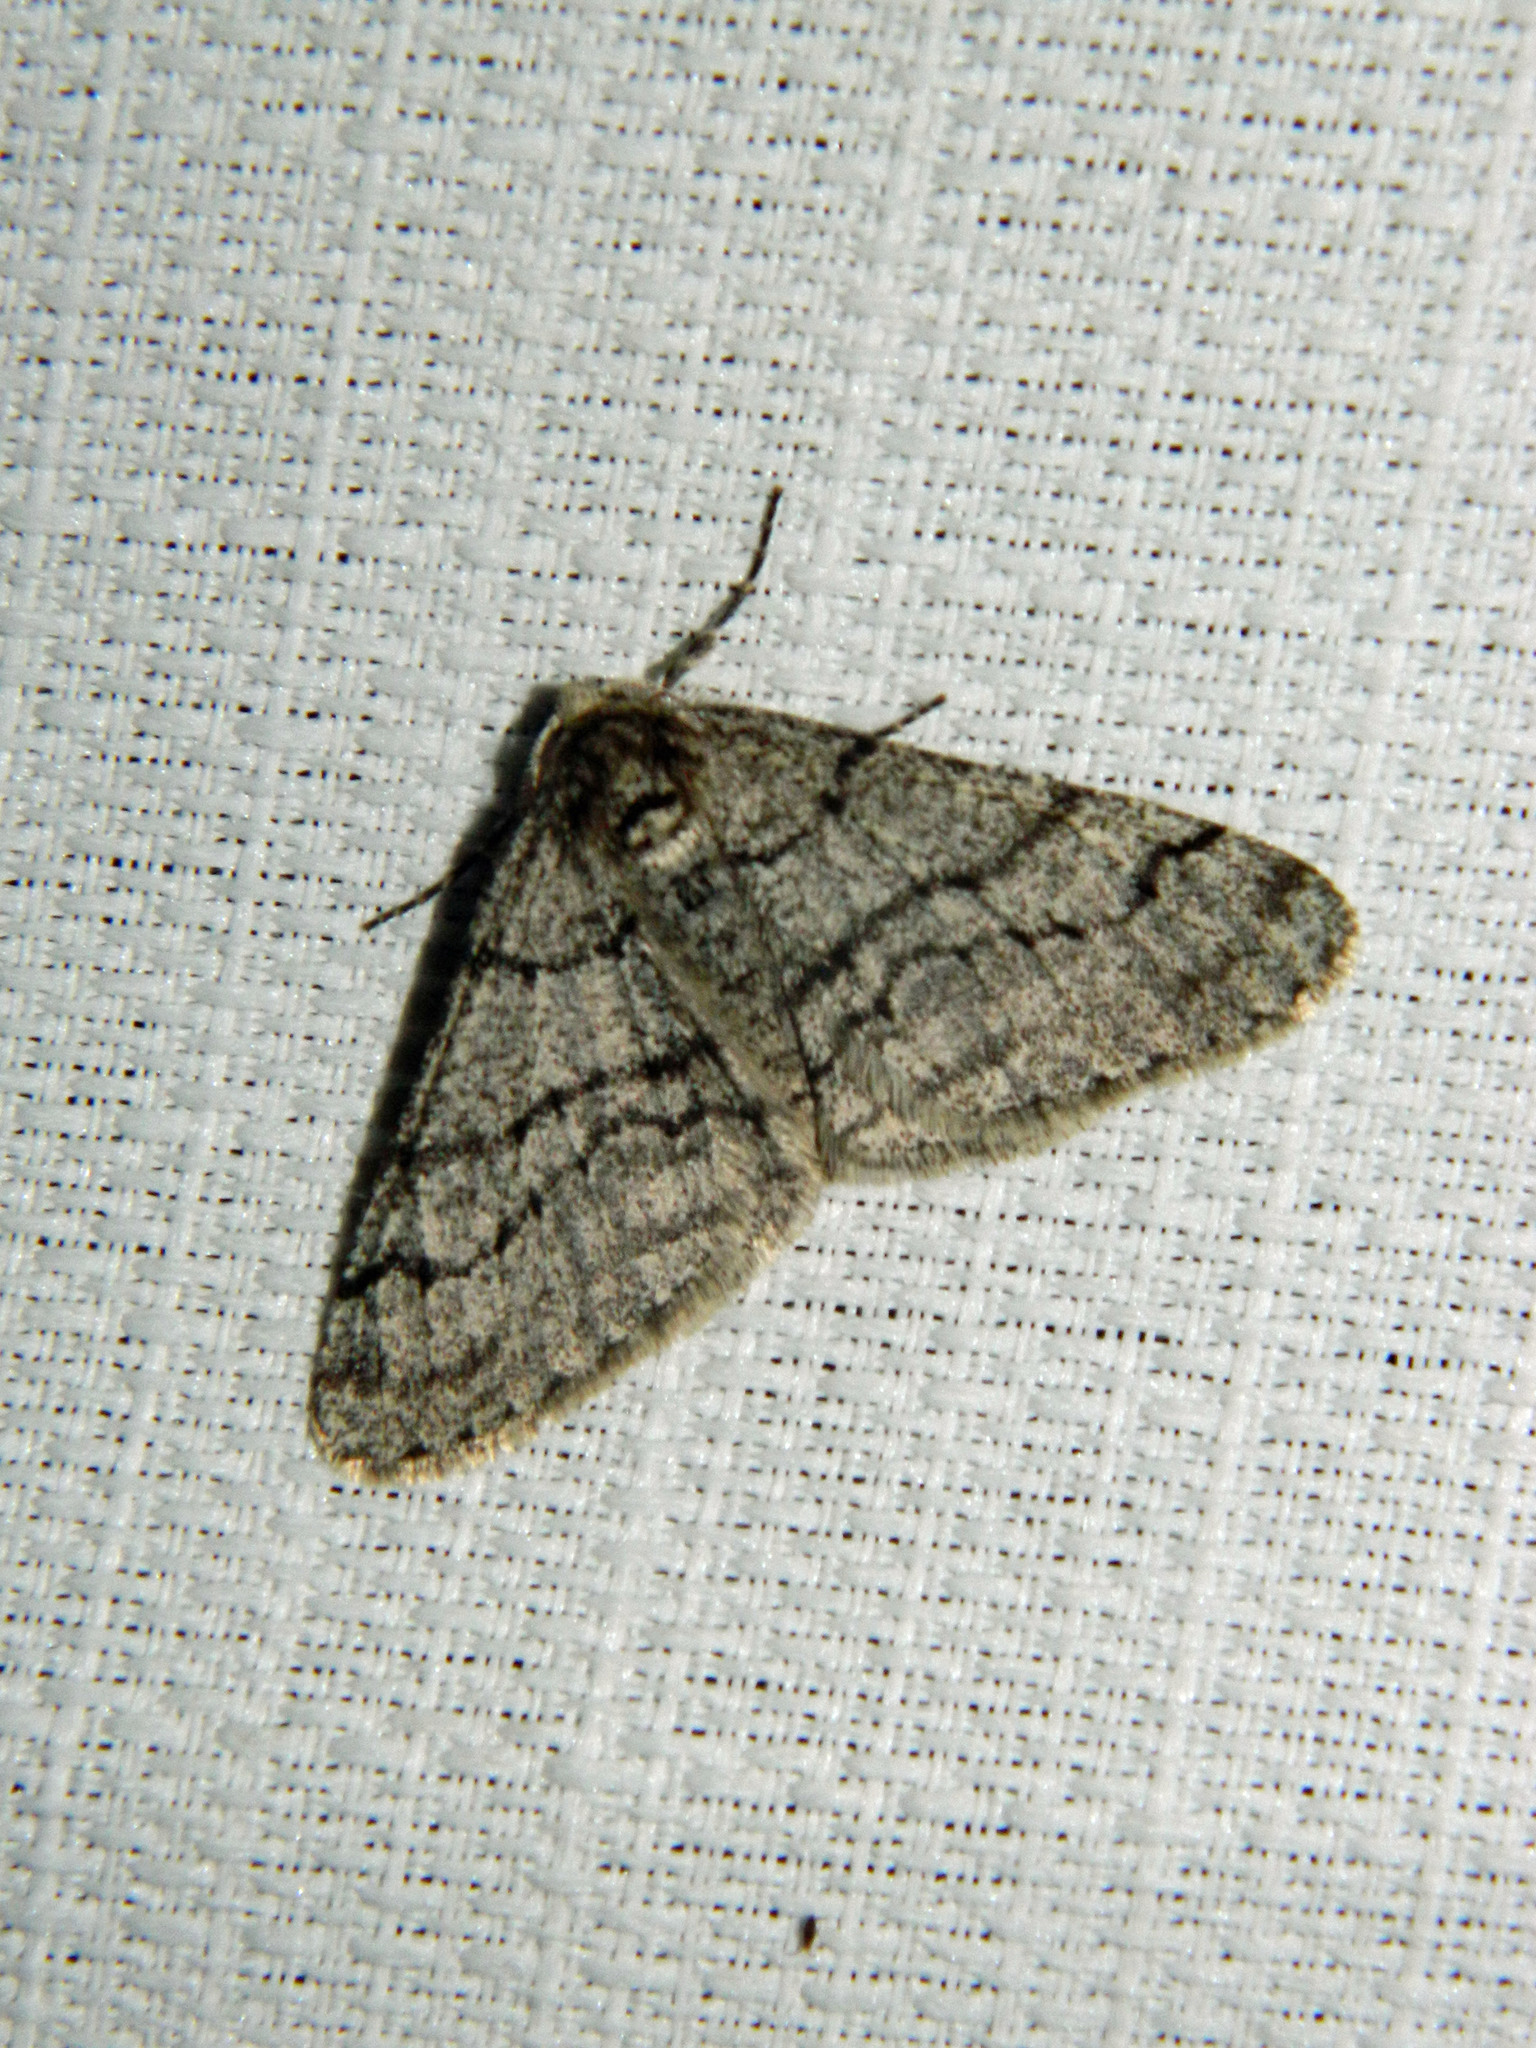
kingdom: Animalia
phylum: Arthropoda
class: Insecta
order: Lepidoptera
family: Geometridae
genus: Phigalia
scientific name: Phigalia titea
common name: Spiny looper
